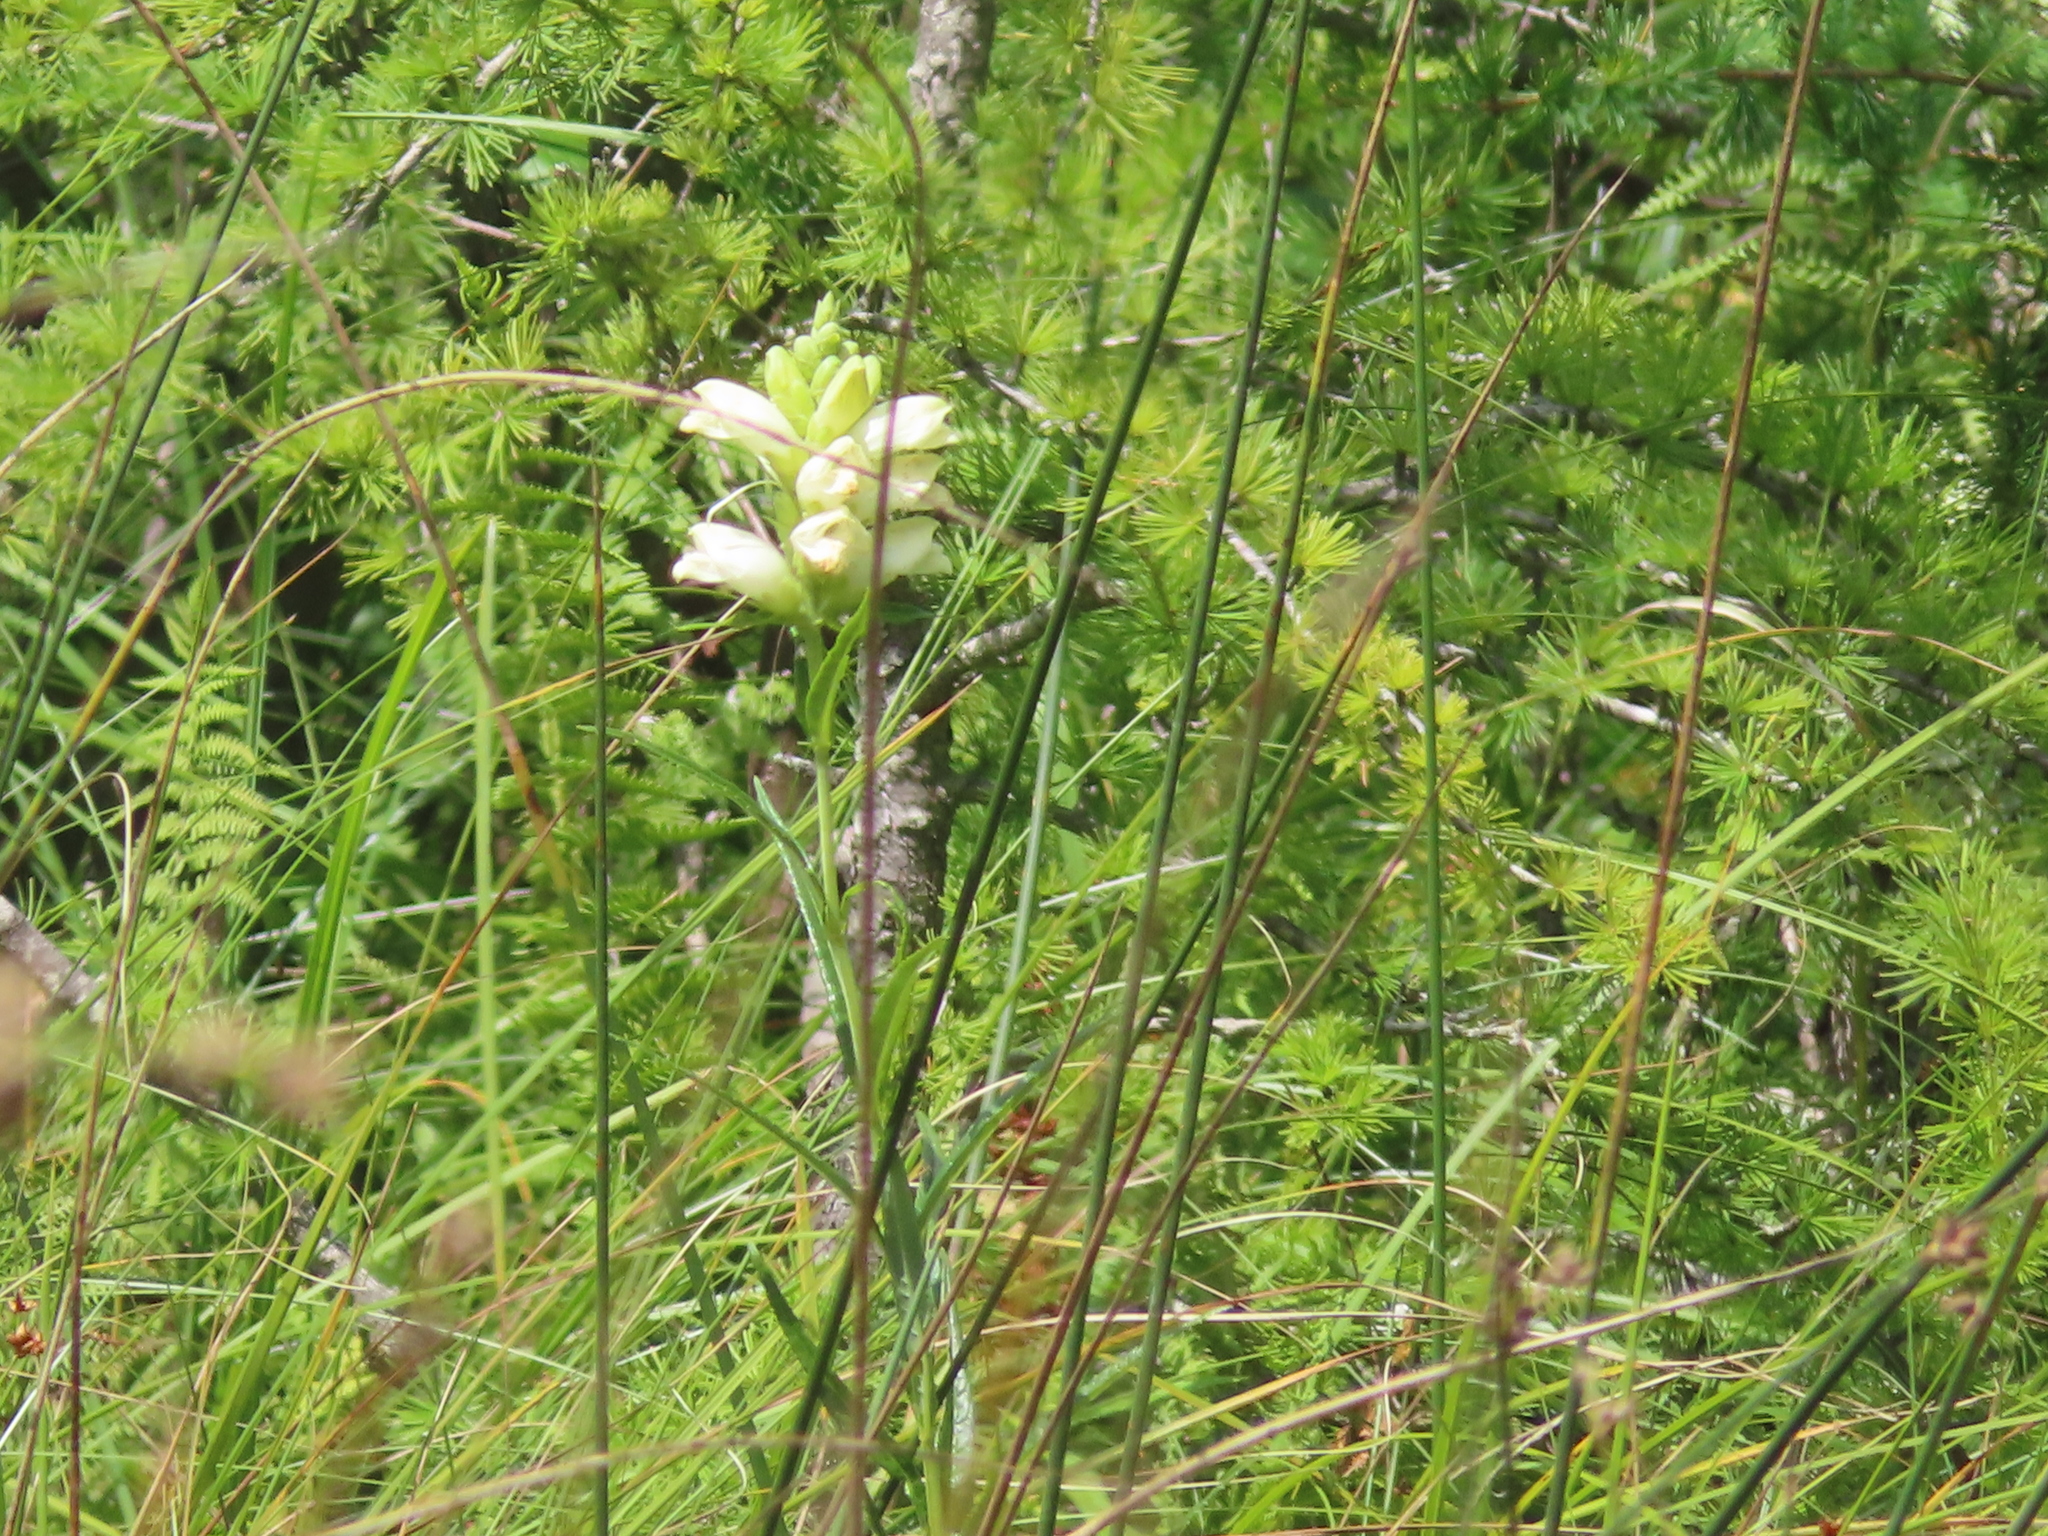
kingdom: Plantae
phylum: Tracheophyta
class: Magnoliopsida
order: Lamiales
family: Plantaginaceae
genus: Chelone
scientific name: Chelone glabra
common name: Snakehead
